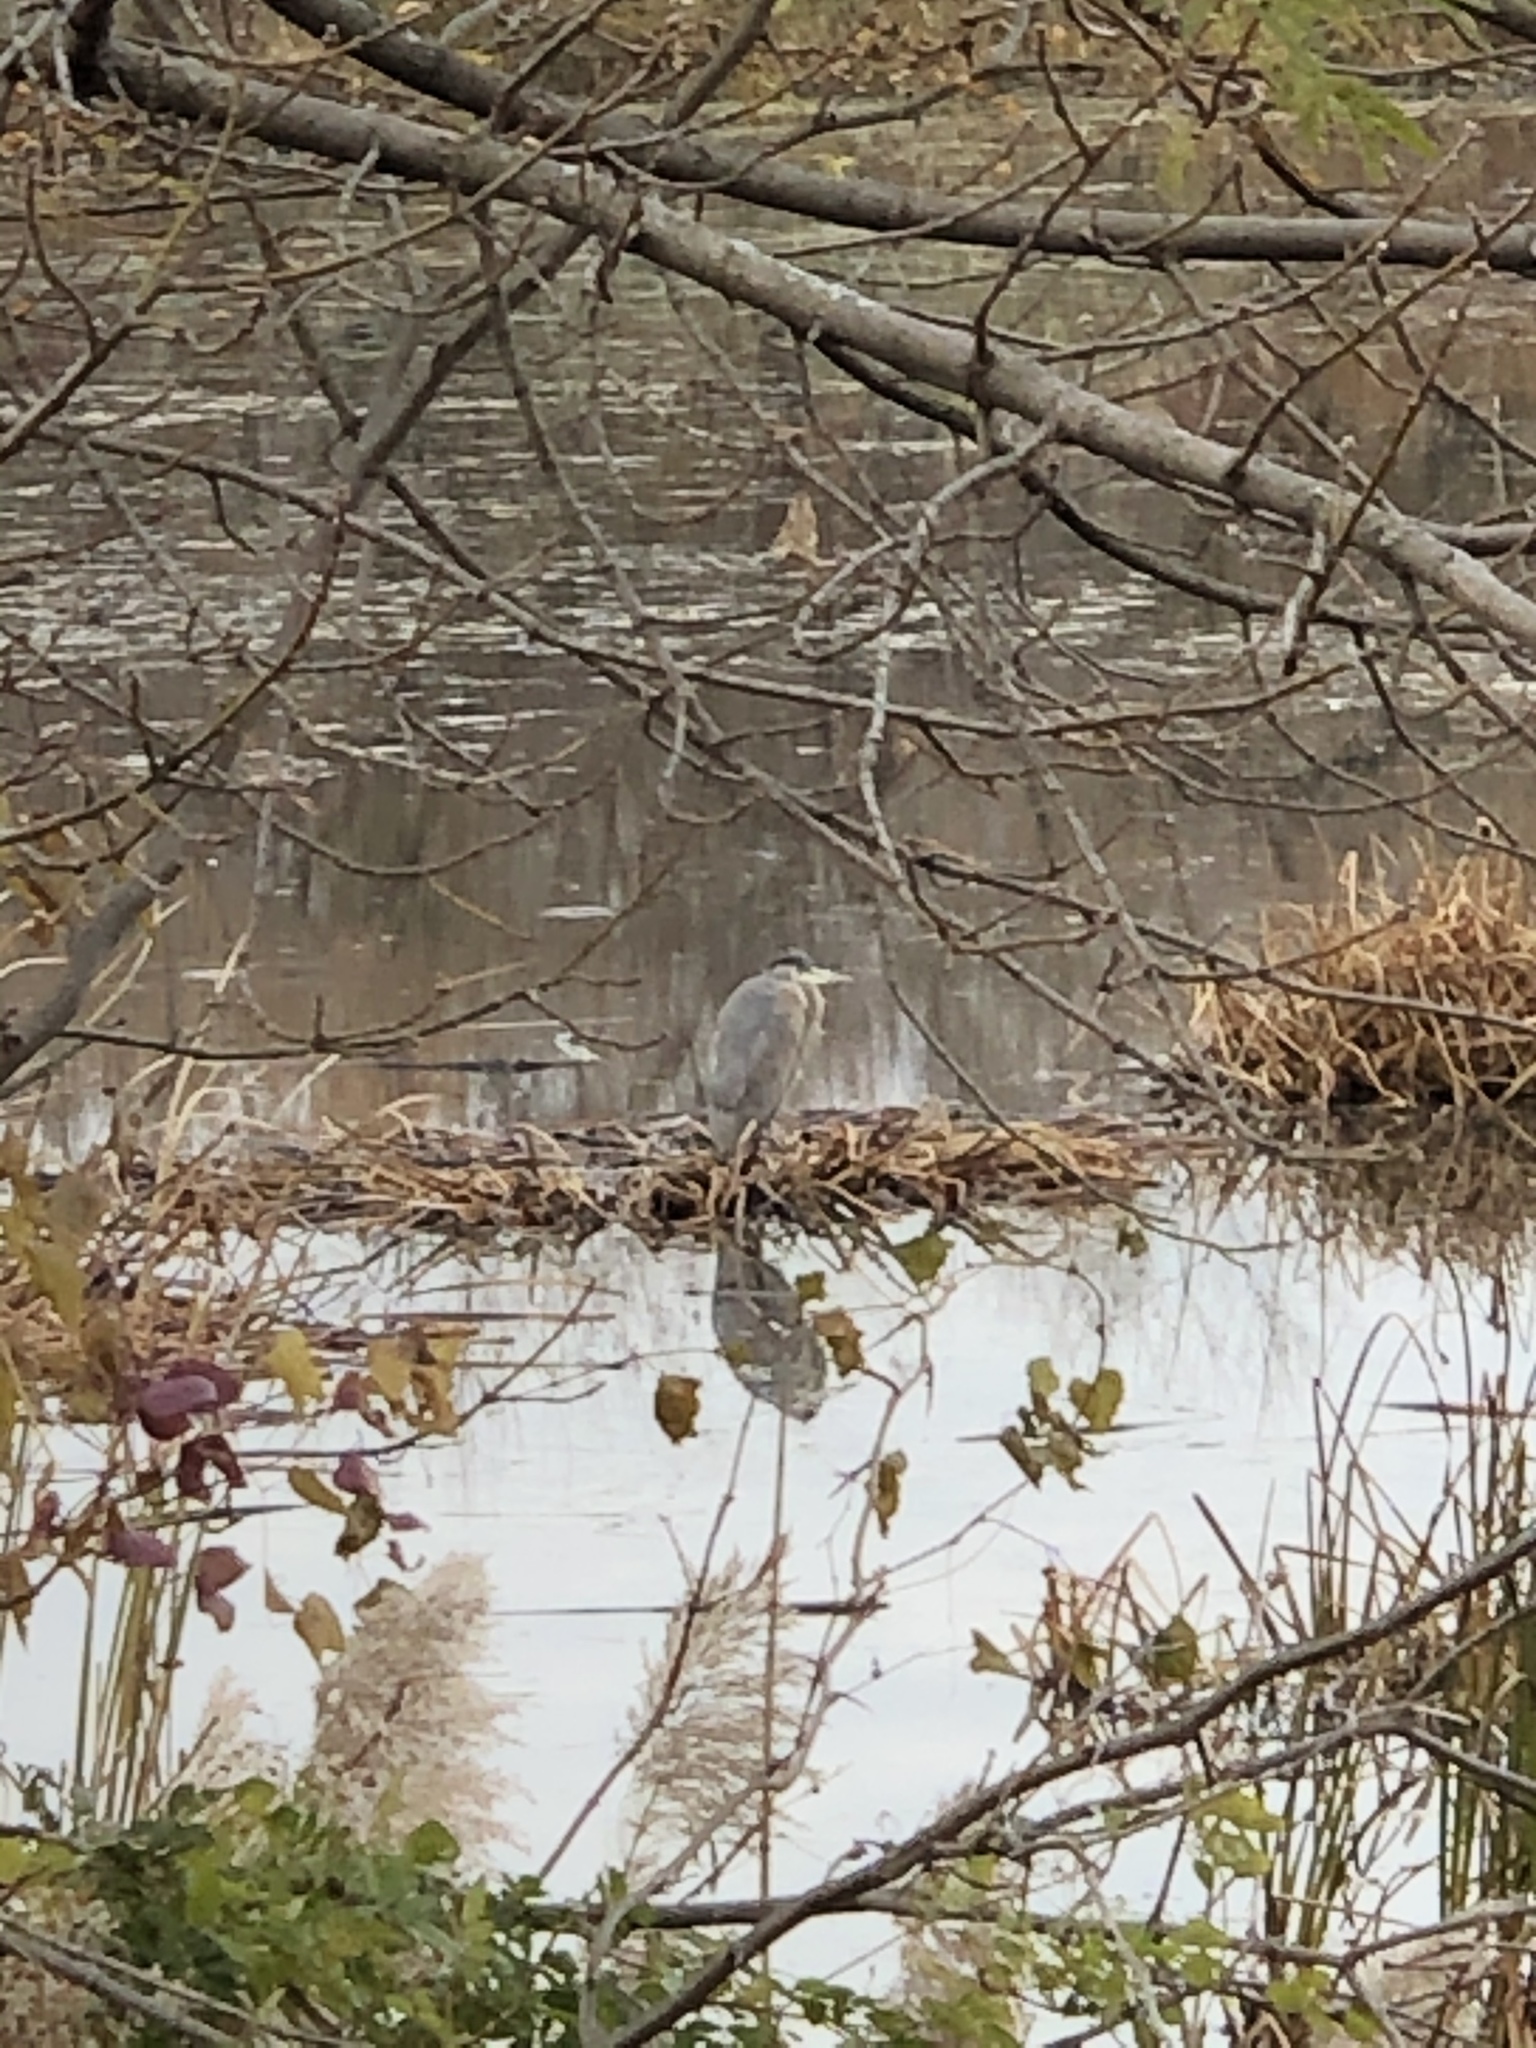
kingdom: Animalia
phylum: Chordata
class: Aves
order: Pelecaniformes
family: Ardeidae
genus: Ardea
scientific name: Ardea herodias
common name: Great blue heron
